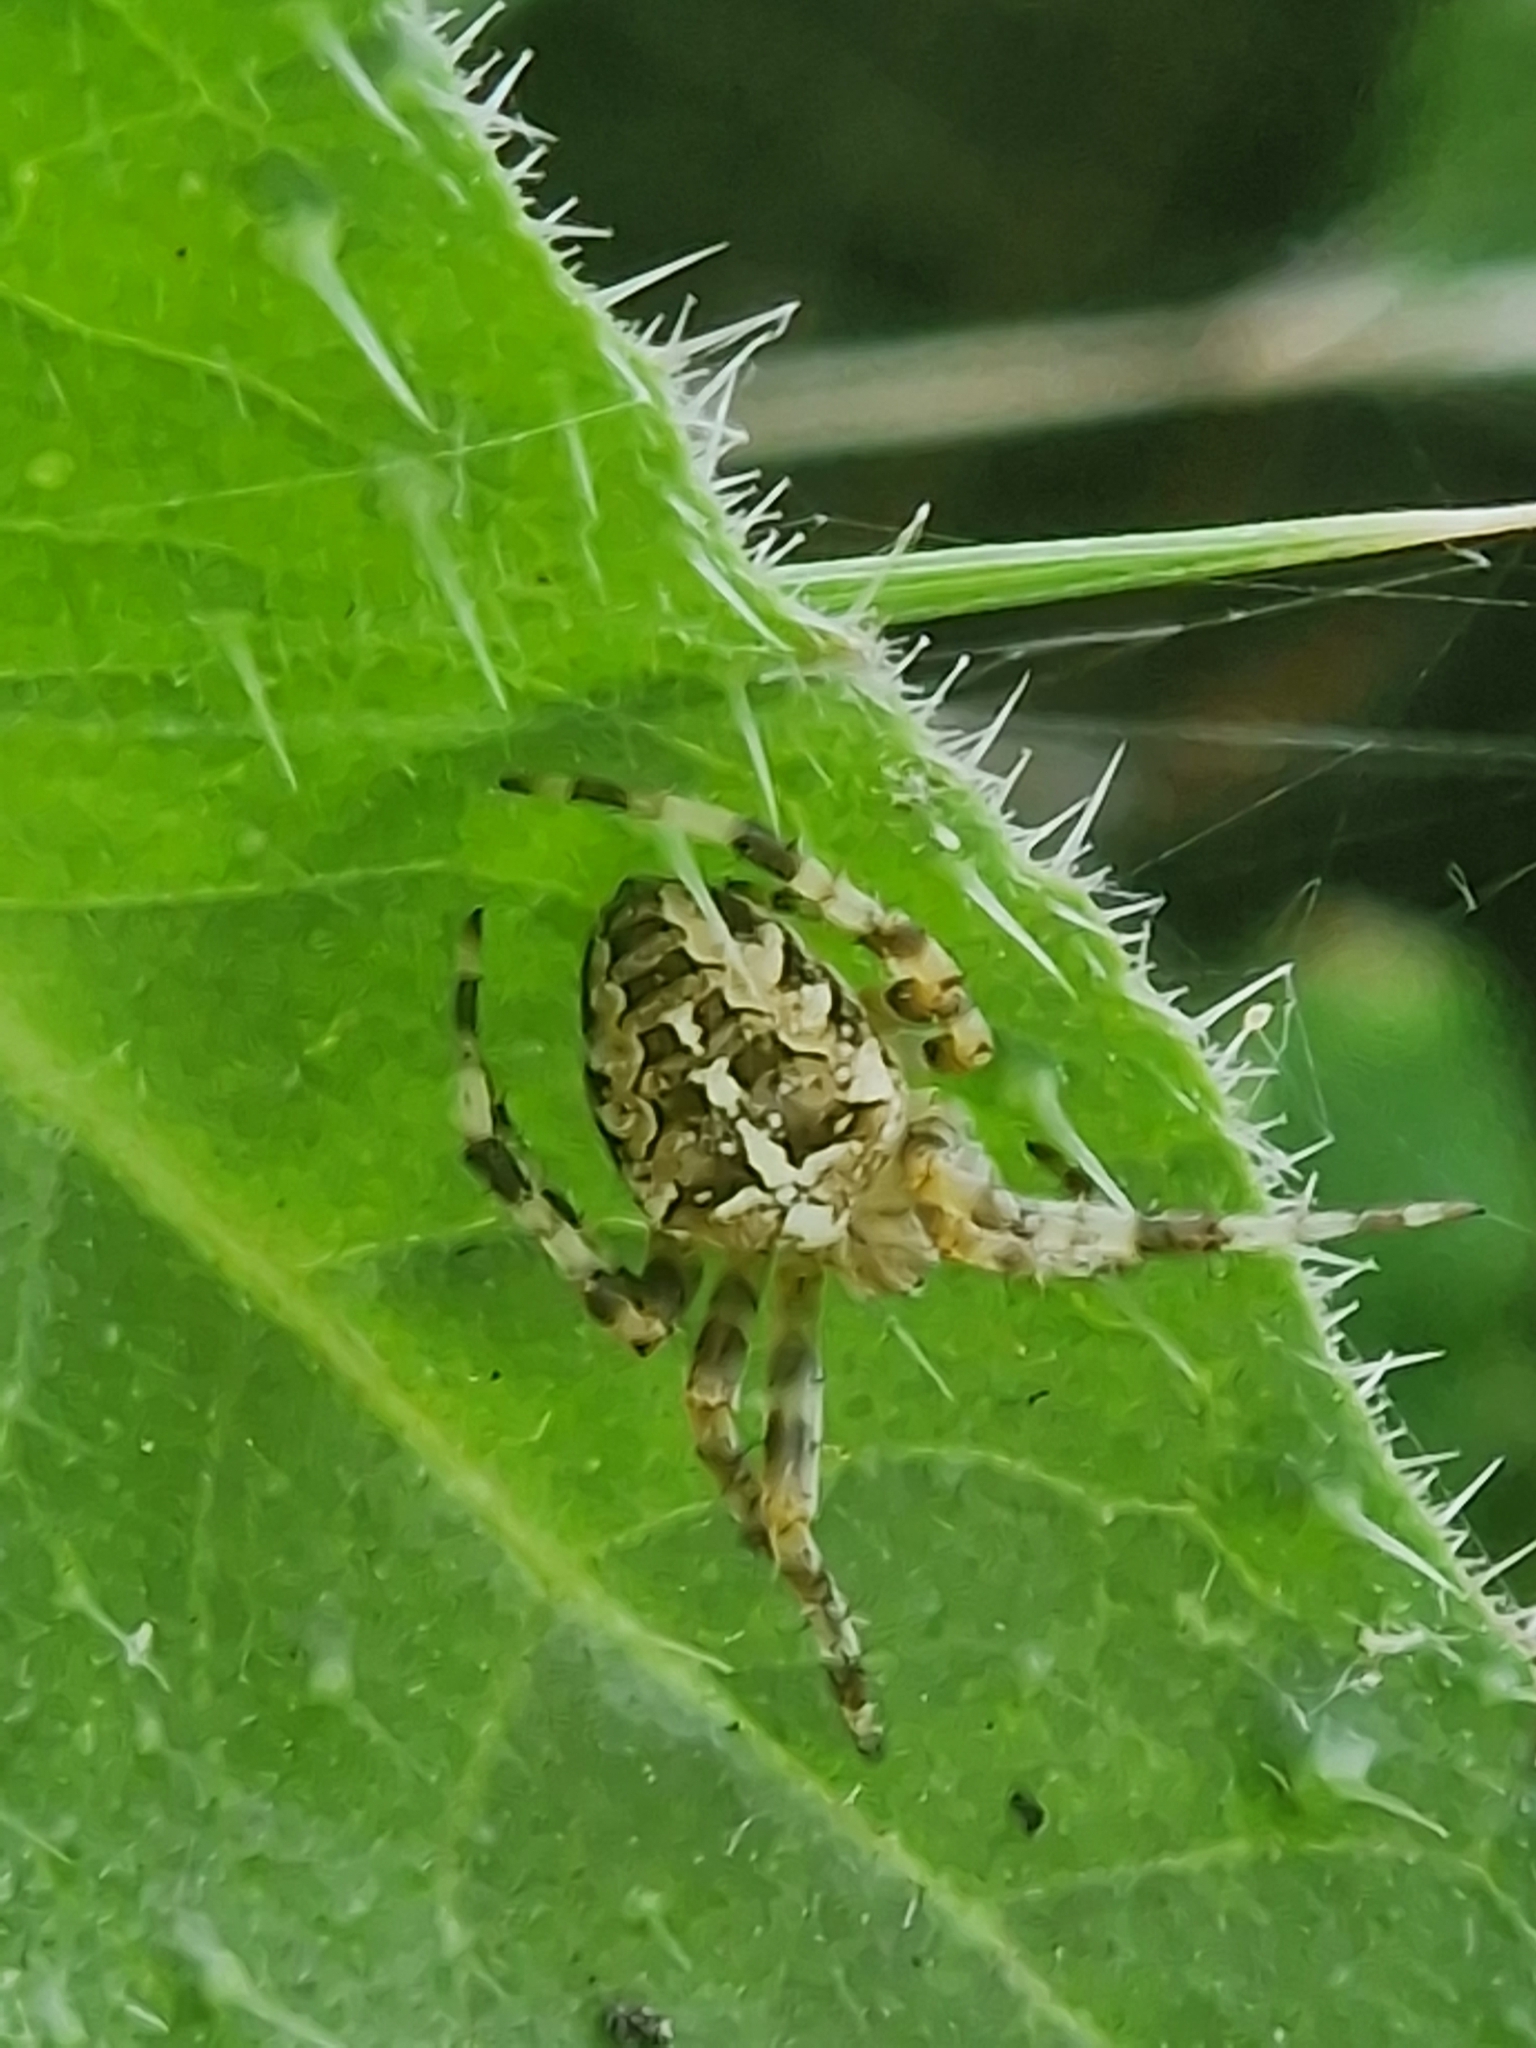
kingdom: Animalia
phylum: Arthropoda
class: Arachnida
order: Araneae
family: Araneidae
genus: Araneus
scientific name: Araneus diadematus
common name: Cross orbweaver
